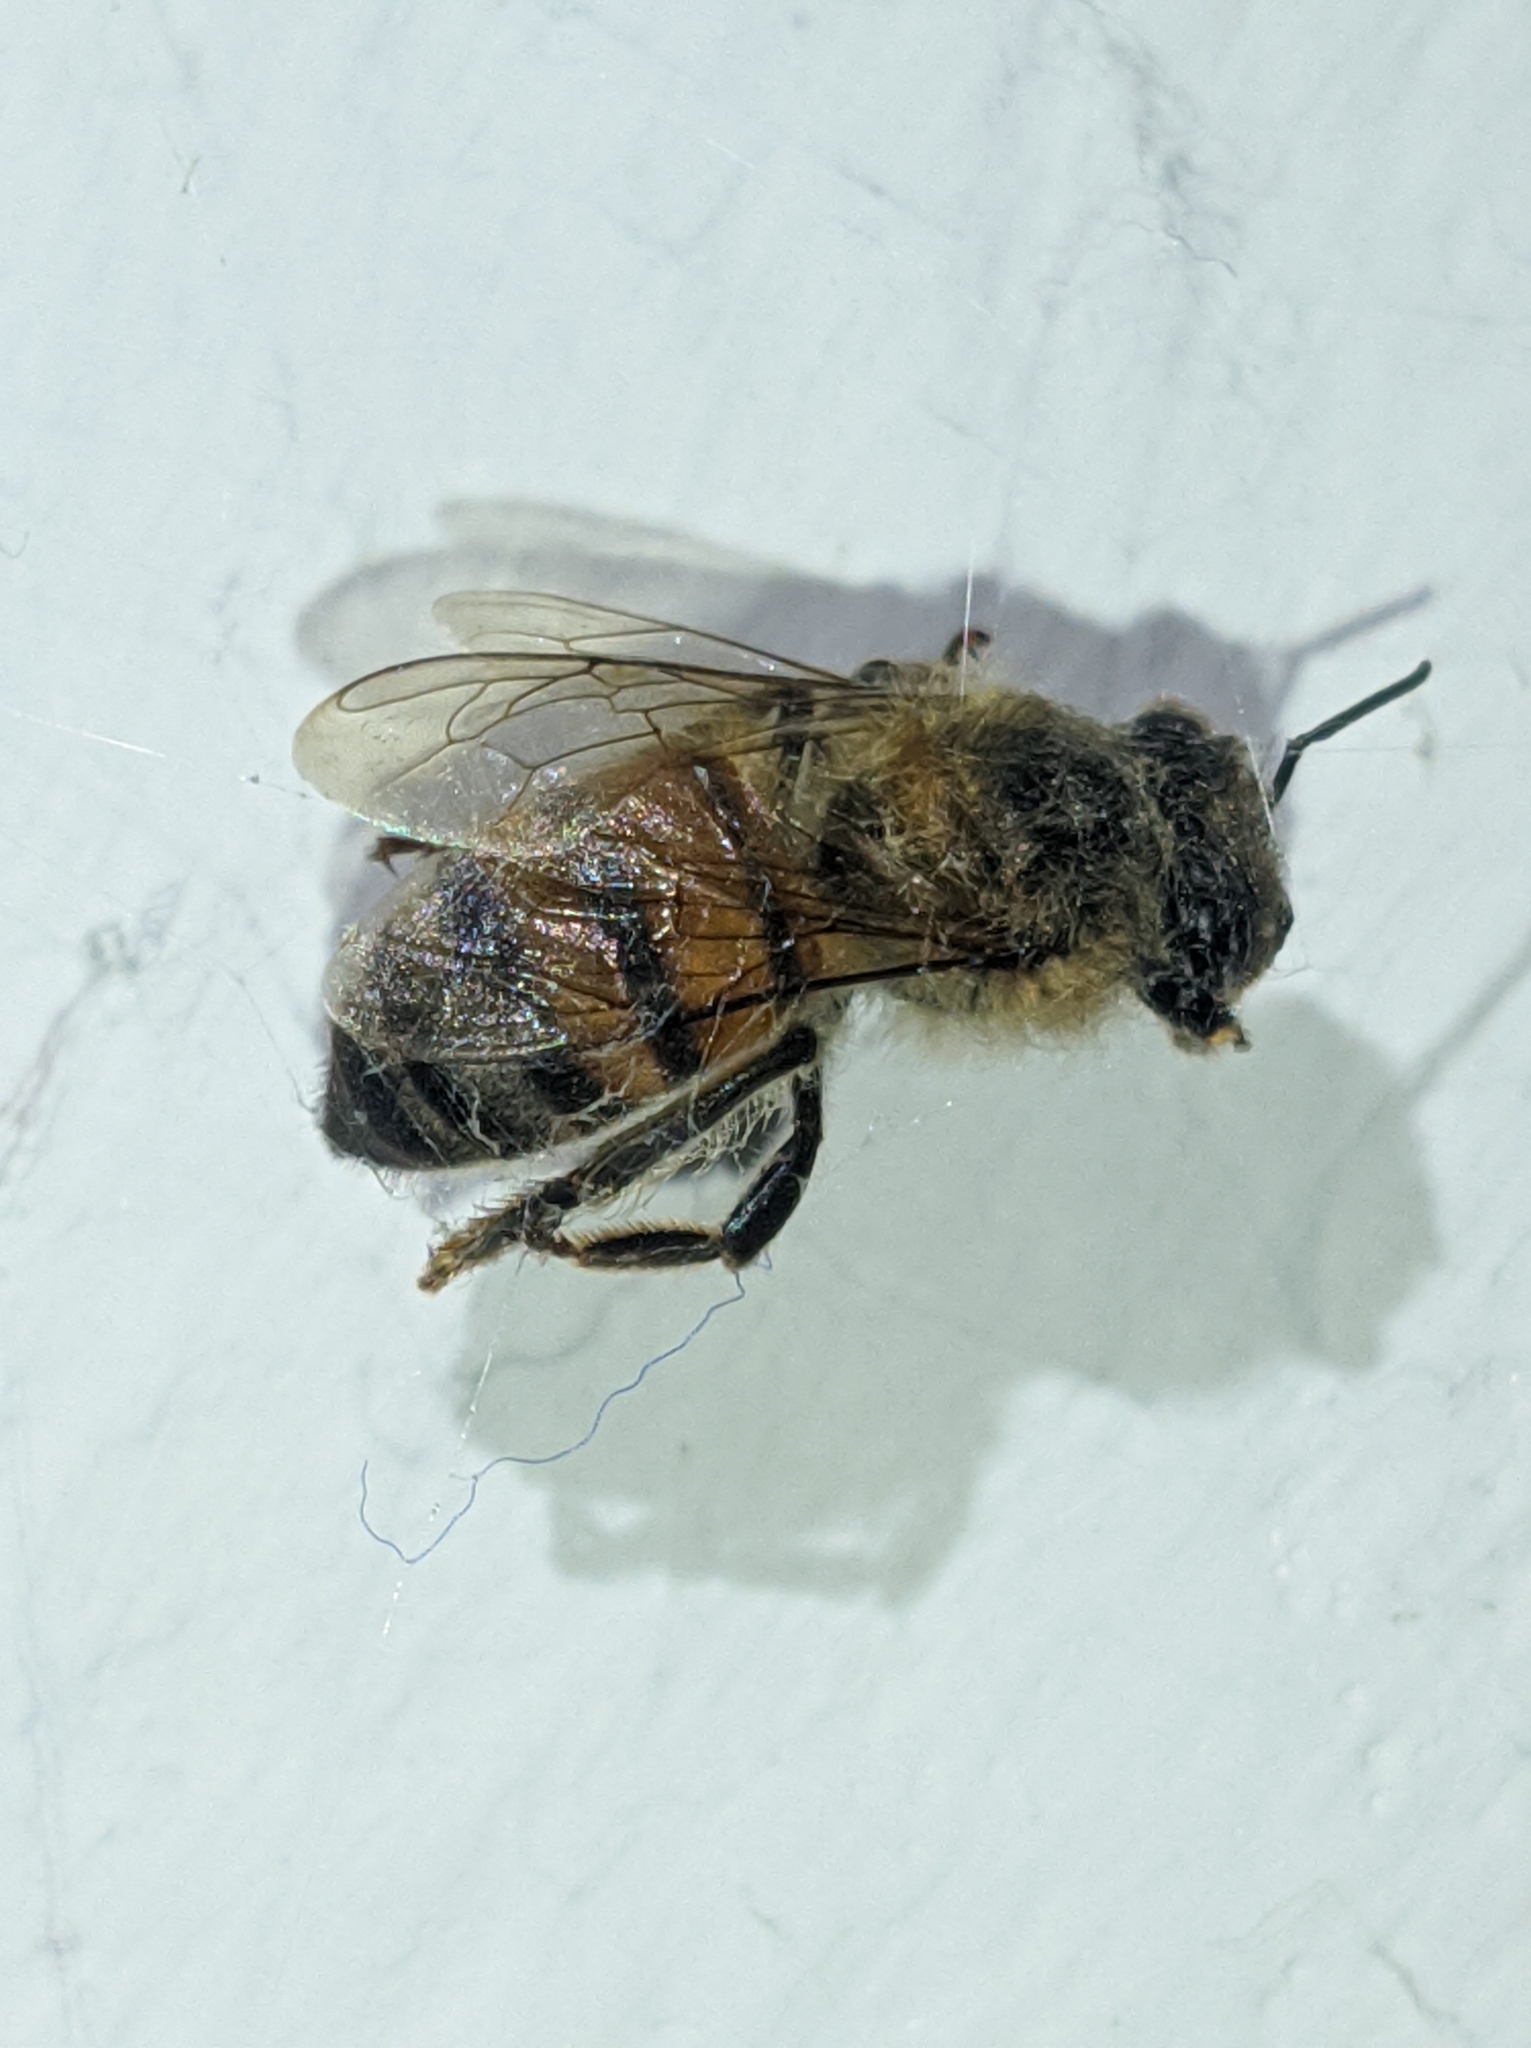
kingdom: Animalia
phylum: Arthropoda
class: Insecta
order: Hymenoptera
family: Apidae
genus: Apis
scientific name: Apis mellifera
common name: Honey bee
